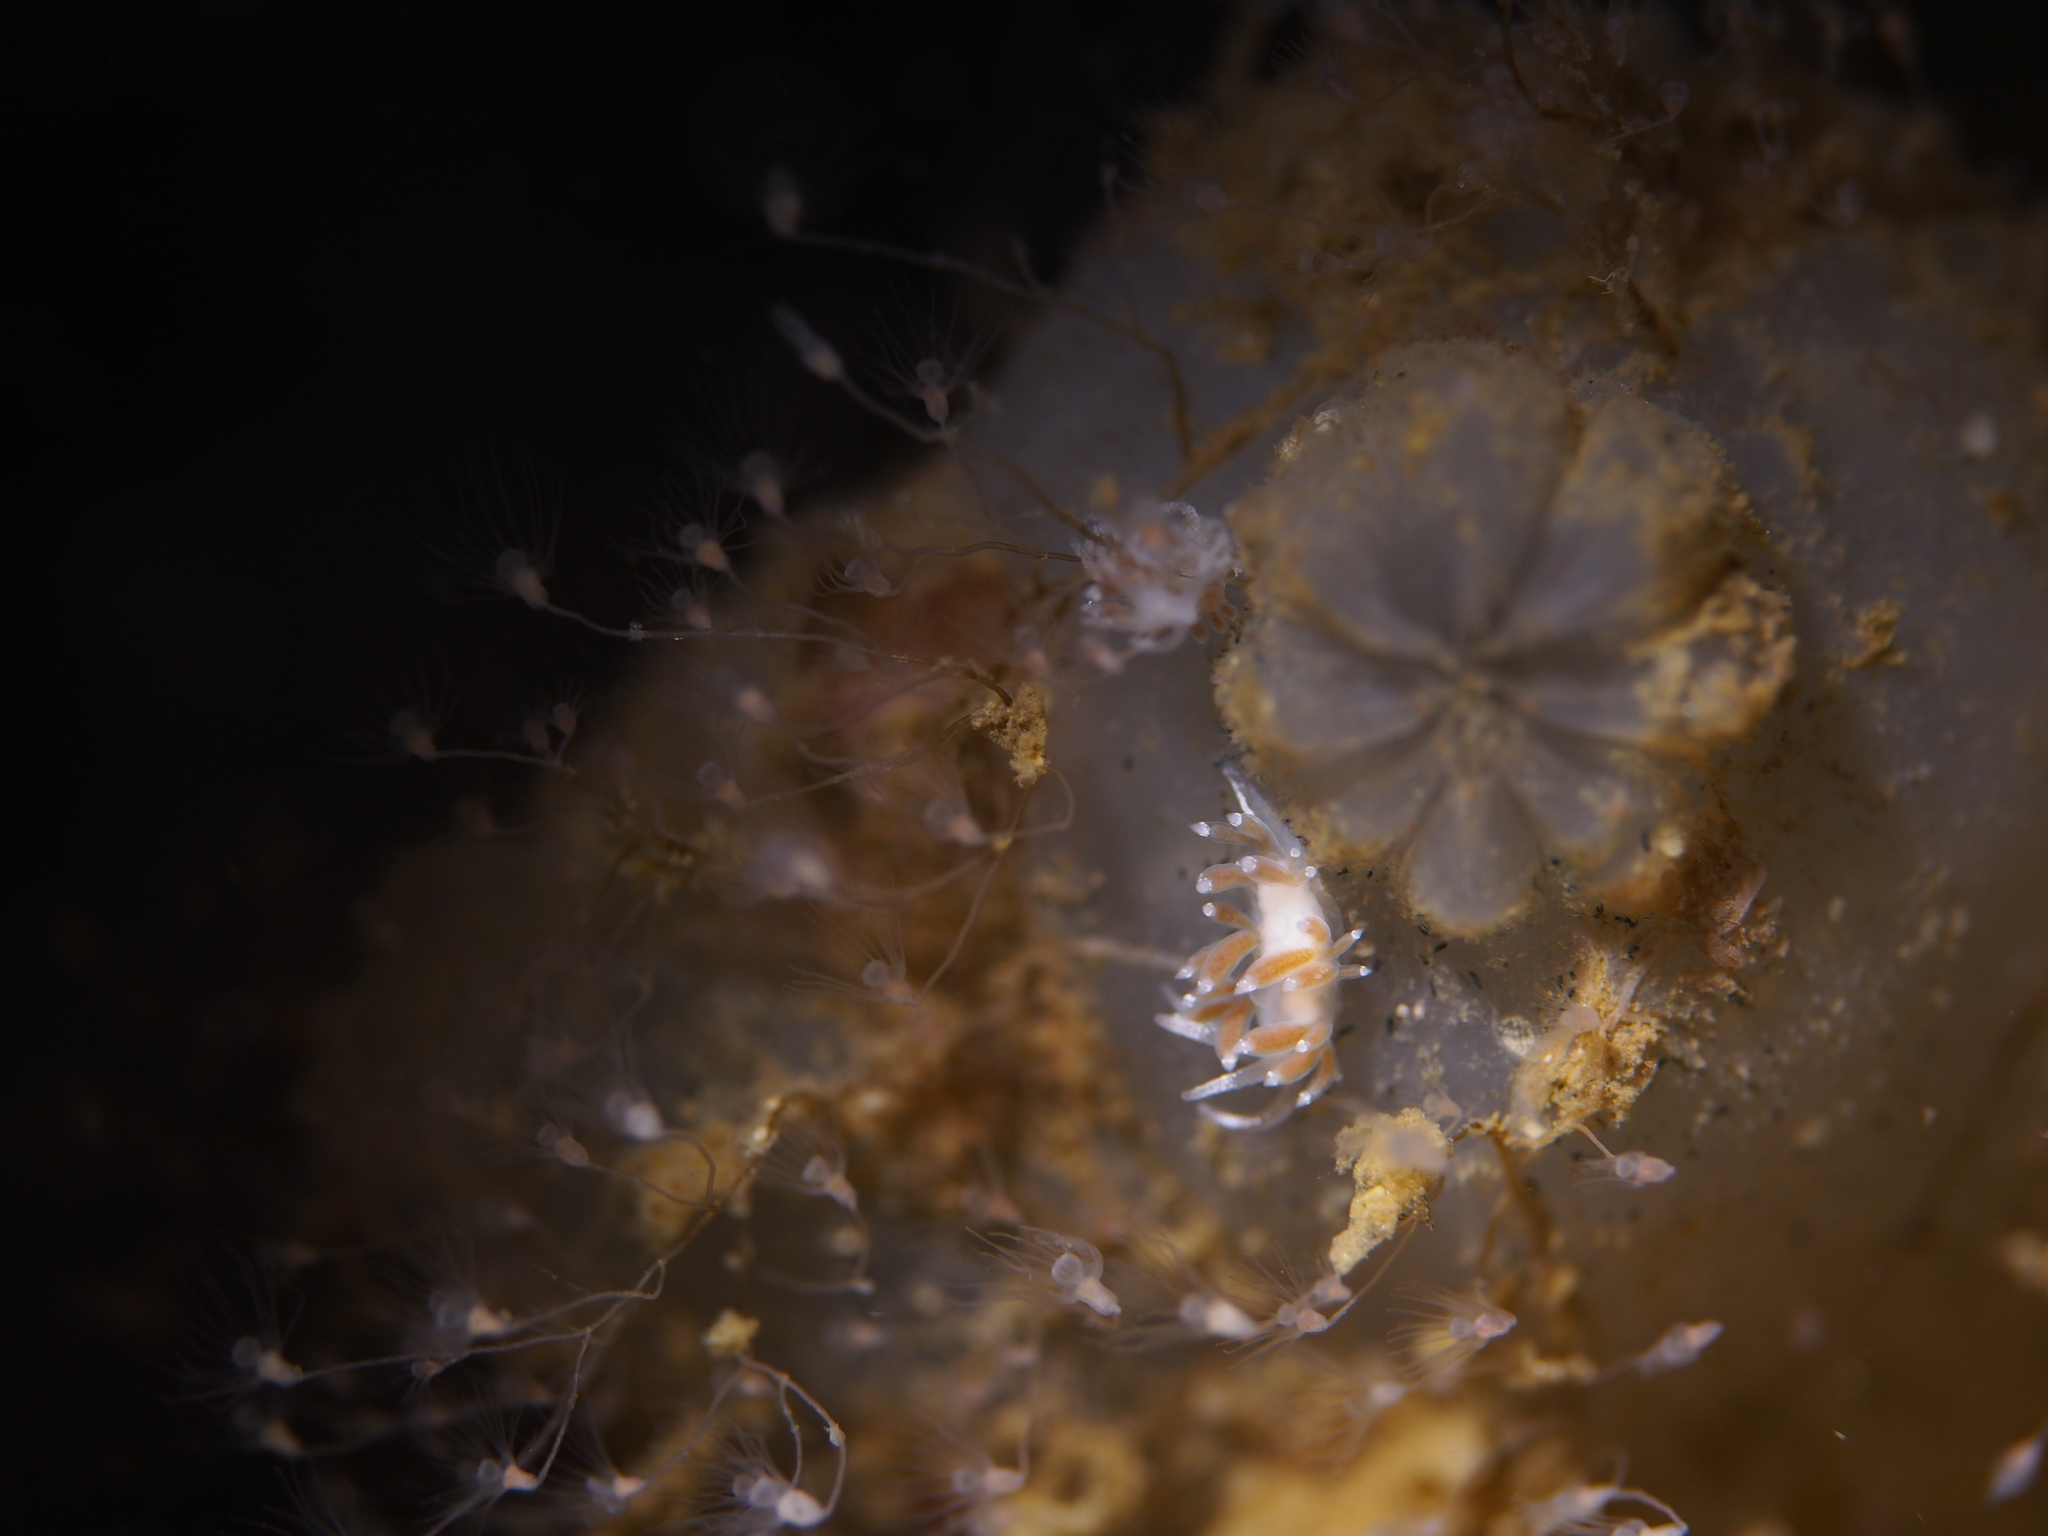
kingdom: Animalia
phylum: Mollusca
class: Gastropoda
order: Nudibranchia
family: Coryphellidae
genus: Coryphella
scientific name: Coryphella gracilis
